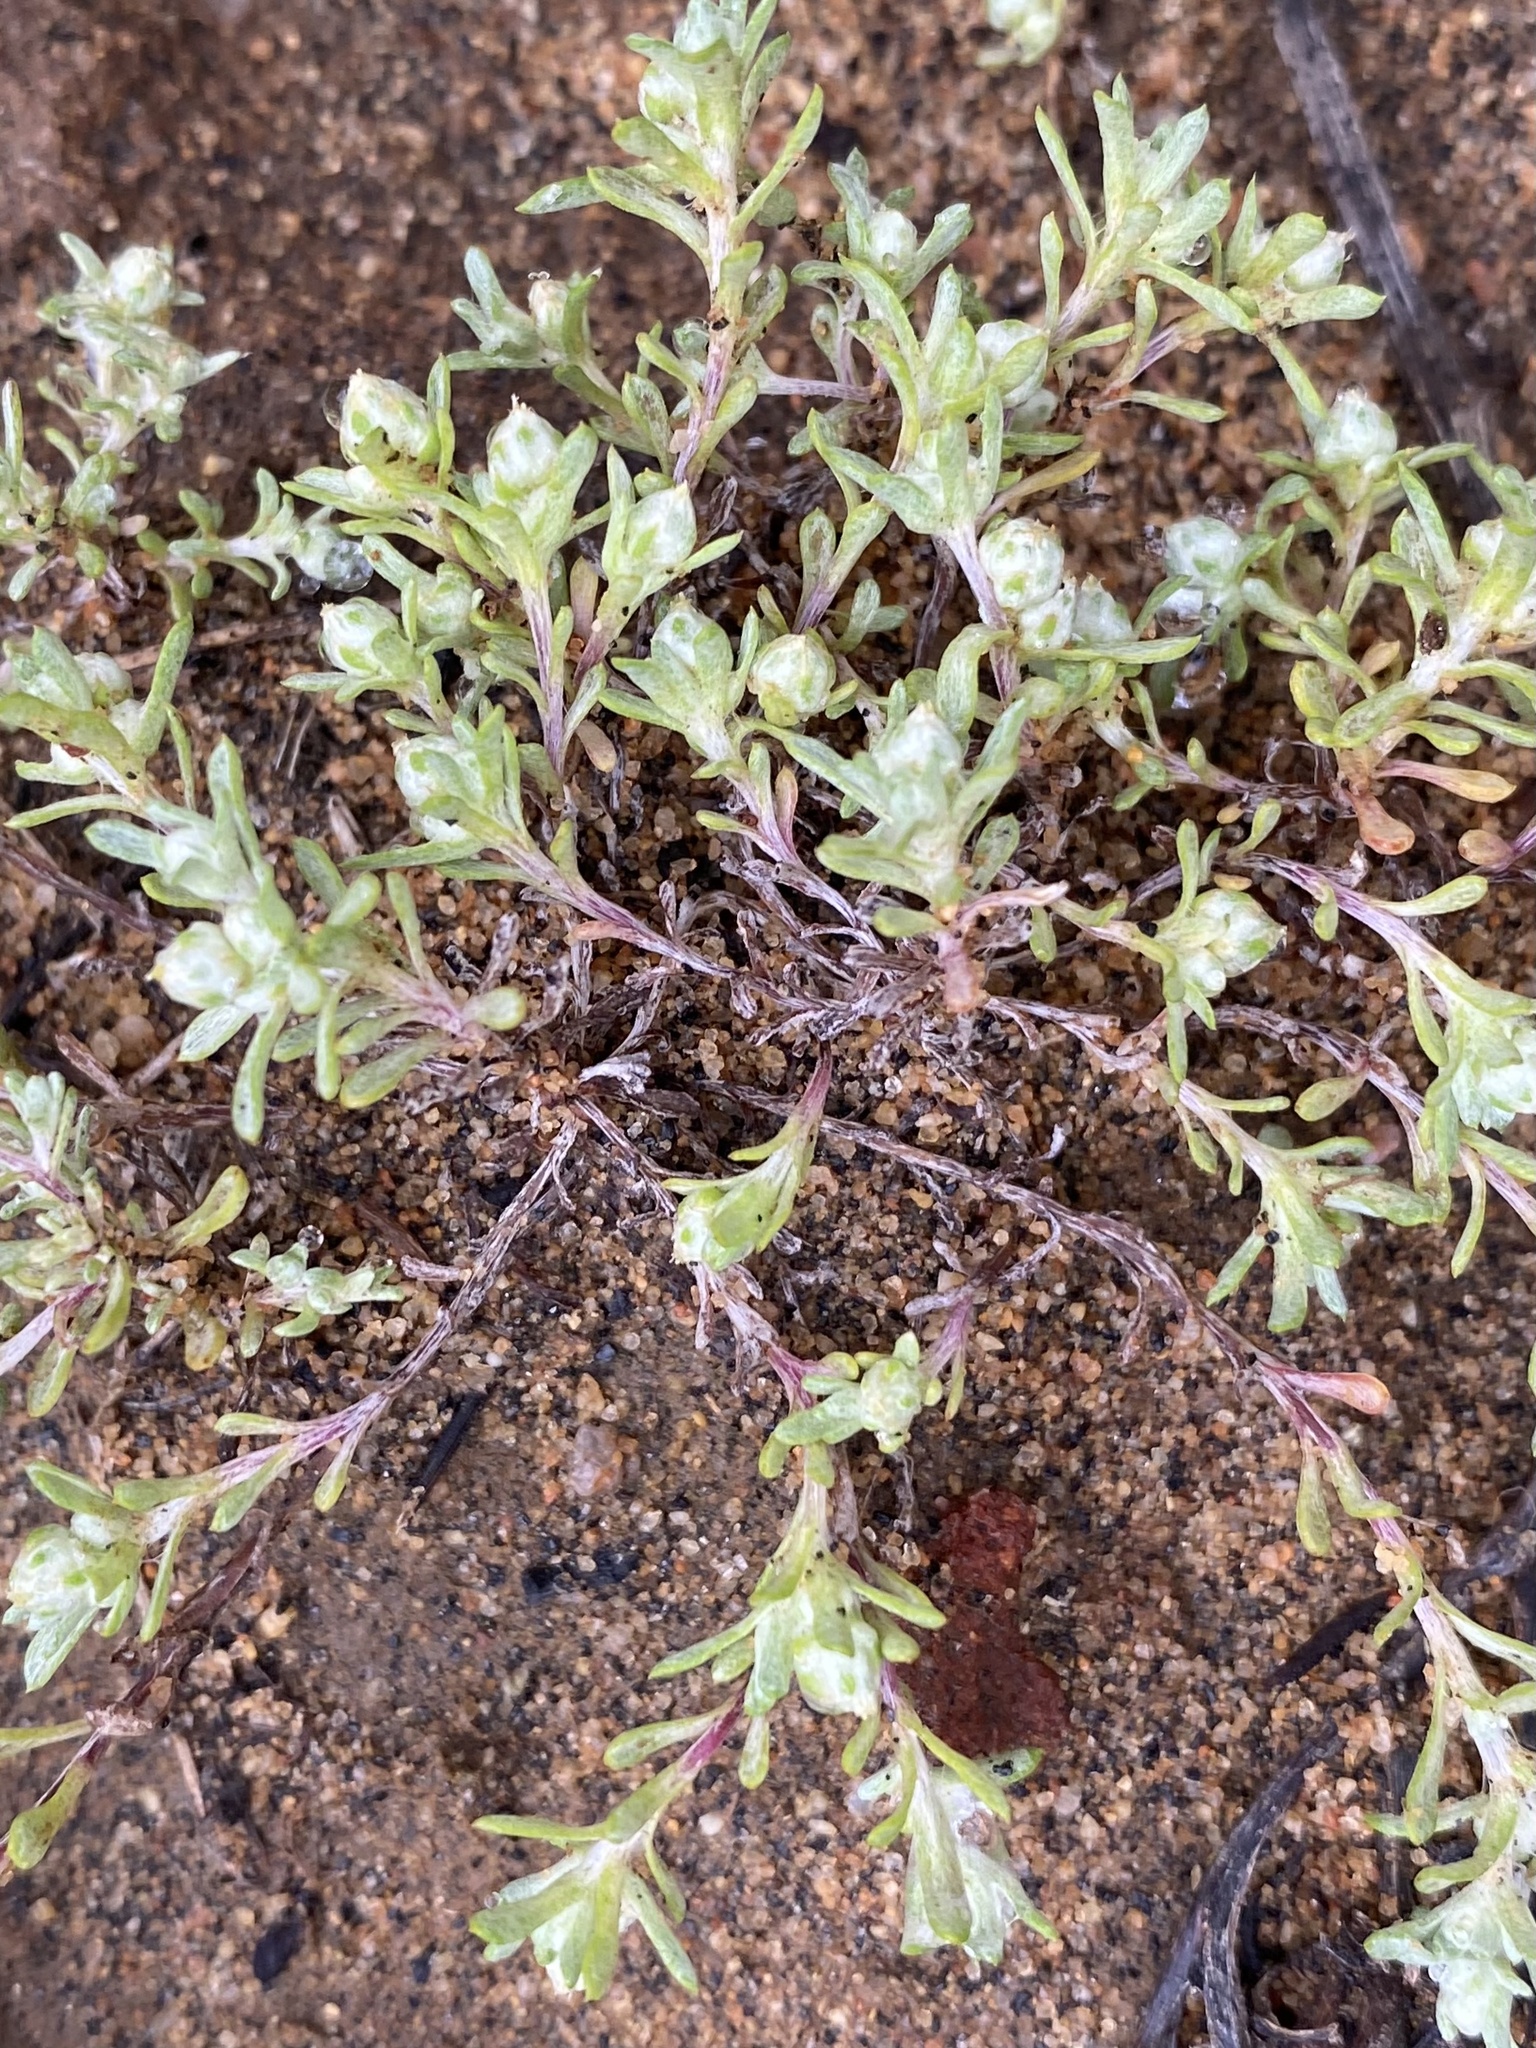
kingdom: Plantae
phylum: Tracheophyta
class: Magnoliopsida
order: Asterales
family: Asteraceae
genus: Stylocline
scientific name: Stylocline gnaphaloides
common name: Everlasting nest-straw
